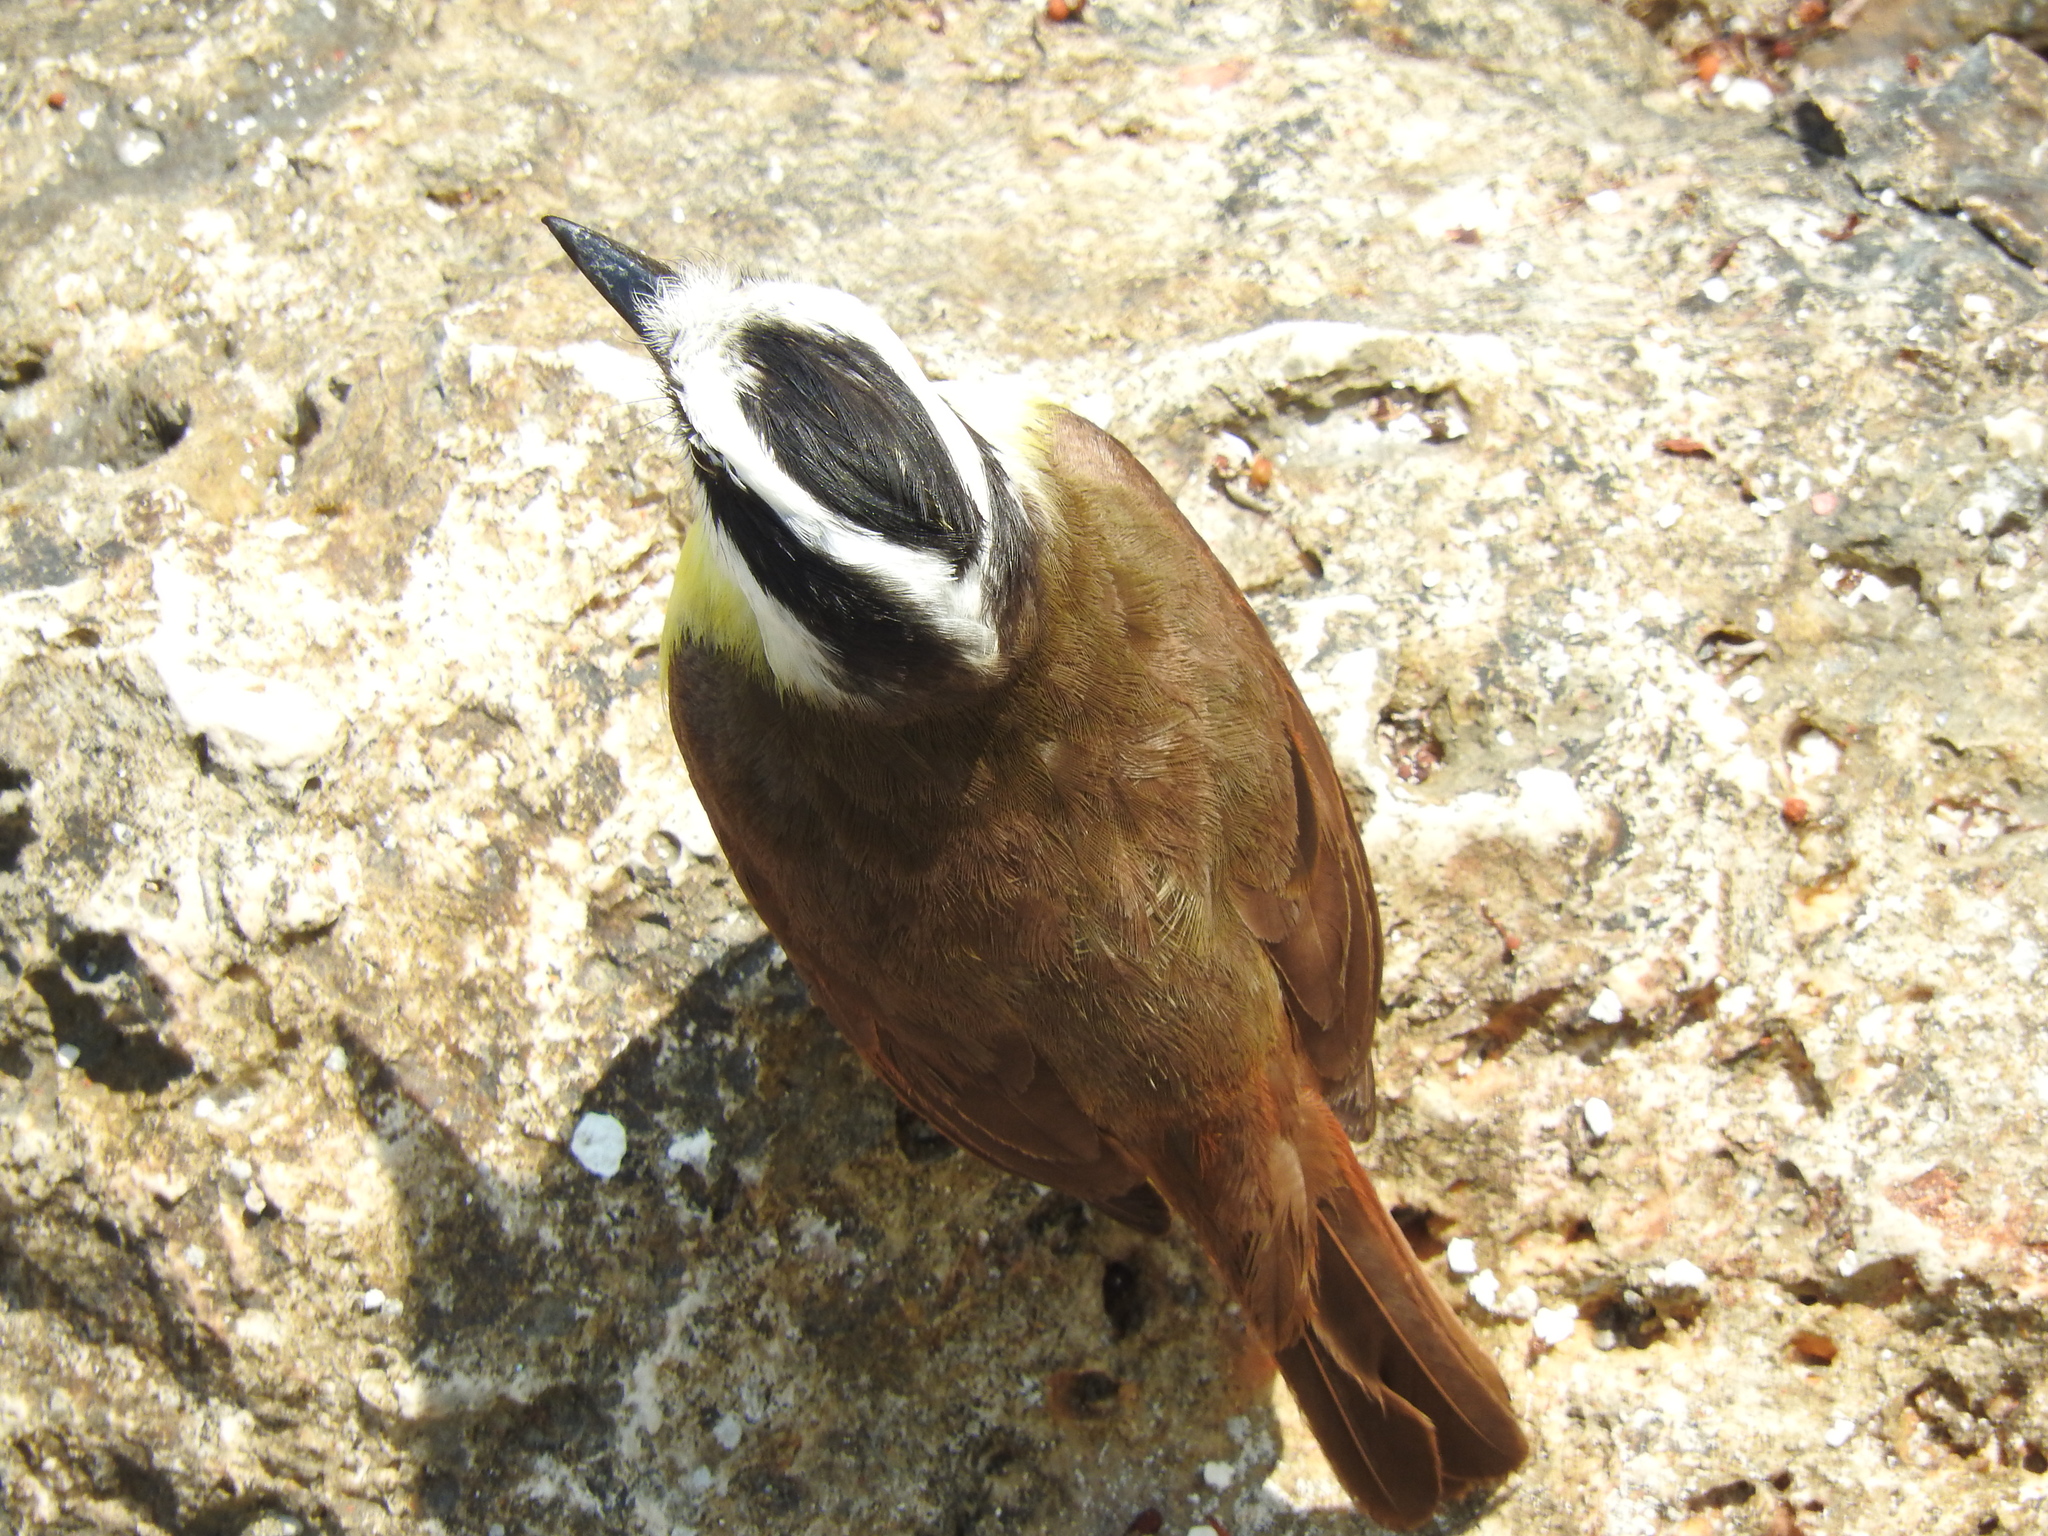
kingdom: Animalia
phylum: Chordata
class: Aves
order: Passeriformes
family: Tyrannidae
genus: Pitangus
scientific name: Pitangus sulphuratus
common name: Great kiskadee
